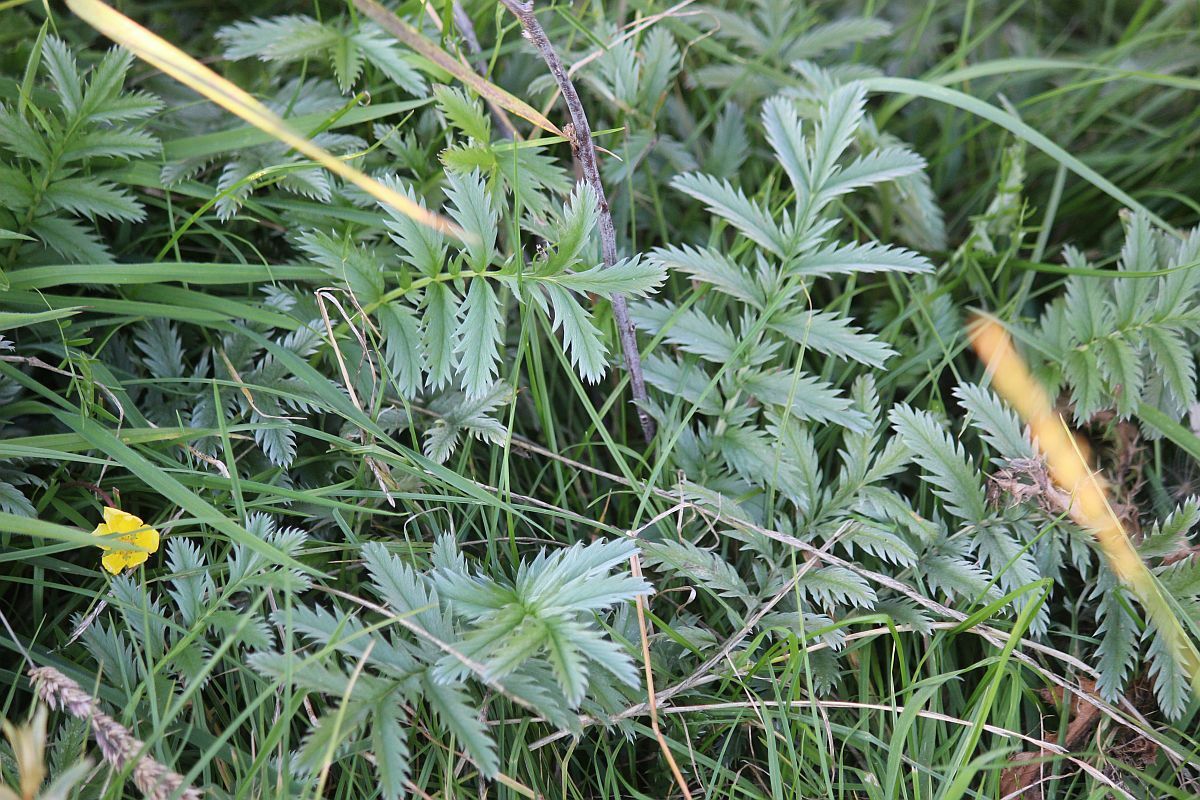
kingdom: Plantae
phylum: Tracheophyta
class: Magnoliopsida
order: Rosales
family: Rosaceae
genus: Argentina
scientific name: Argentina anserina
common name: Common silverweed
